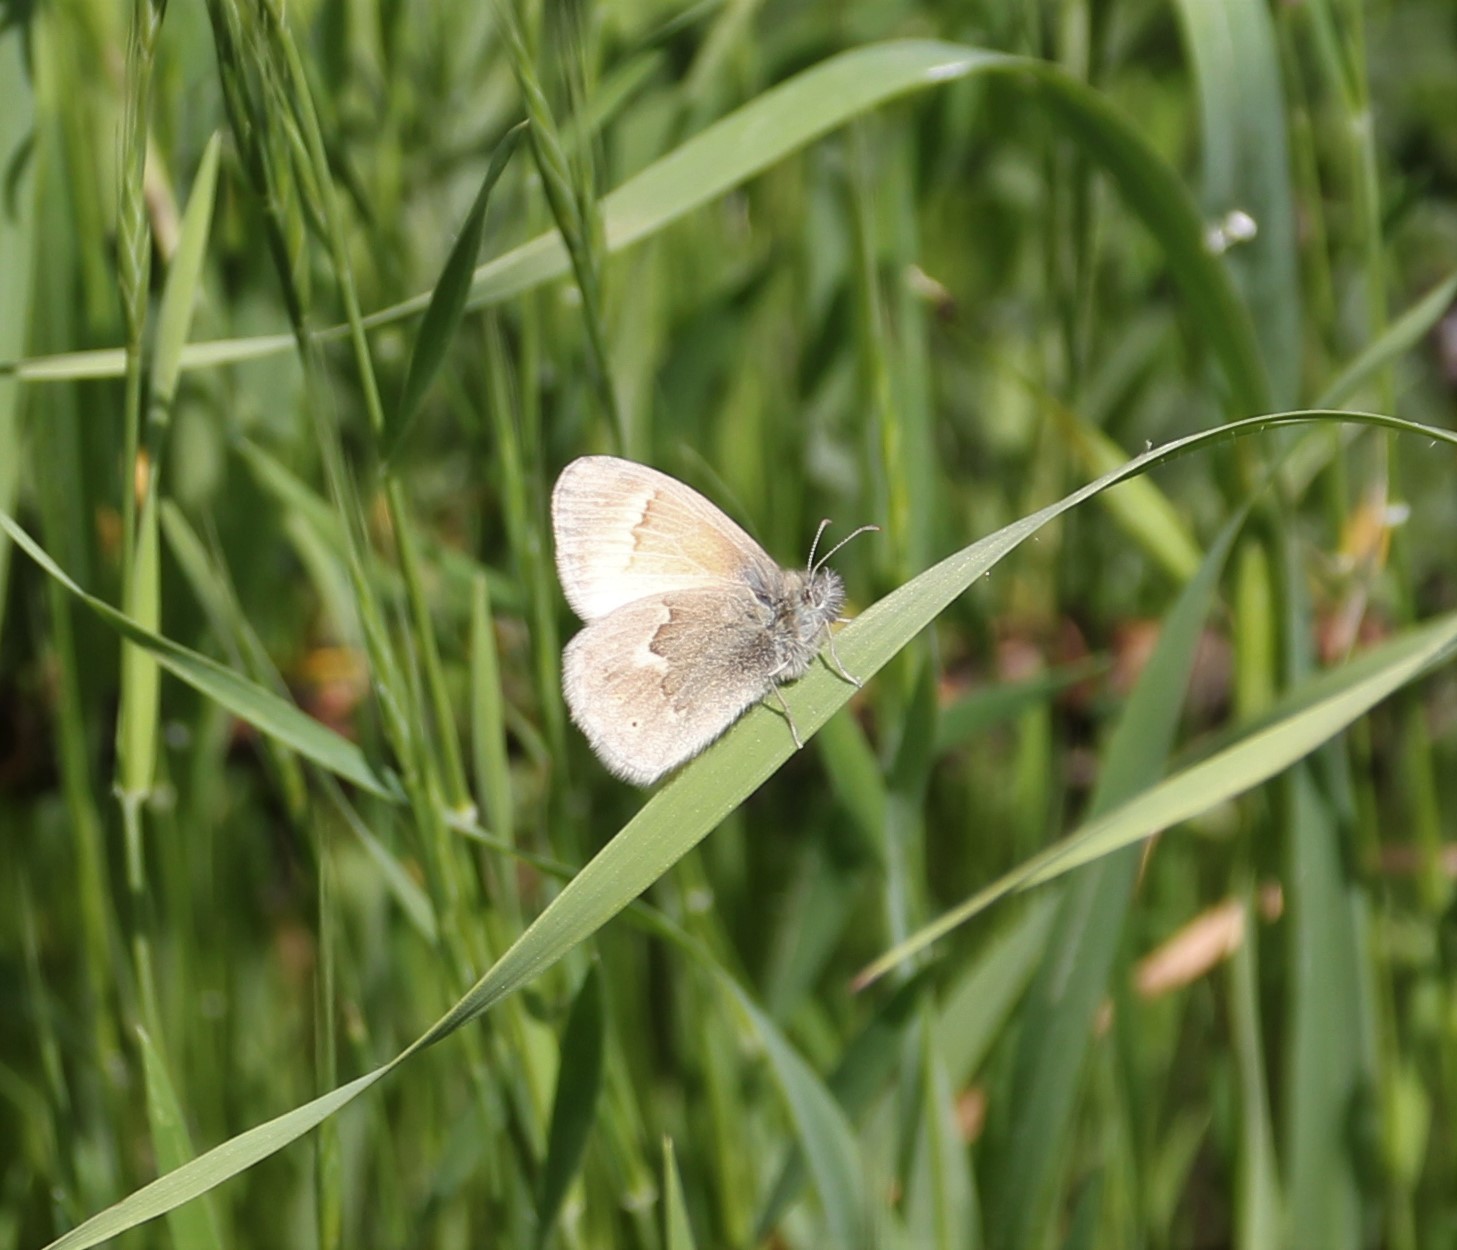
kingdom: Animalia
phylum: Arthropoda
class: Insecta
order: Lepidoptera
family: Nymphalidae
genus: Coenonympha
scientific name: Coenonympha california
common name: Common ringlet
